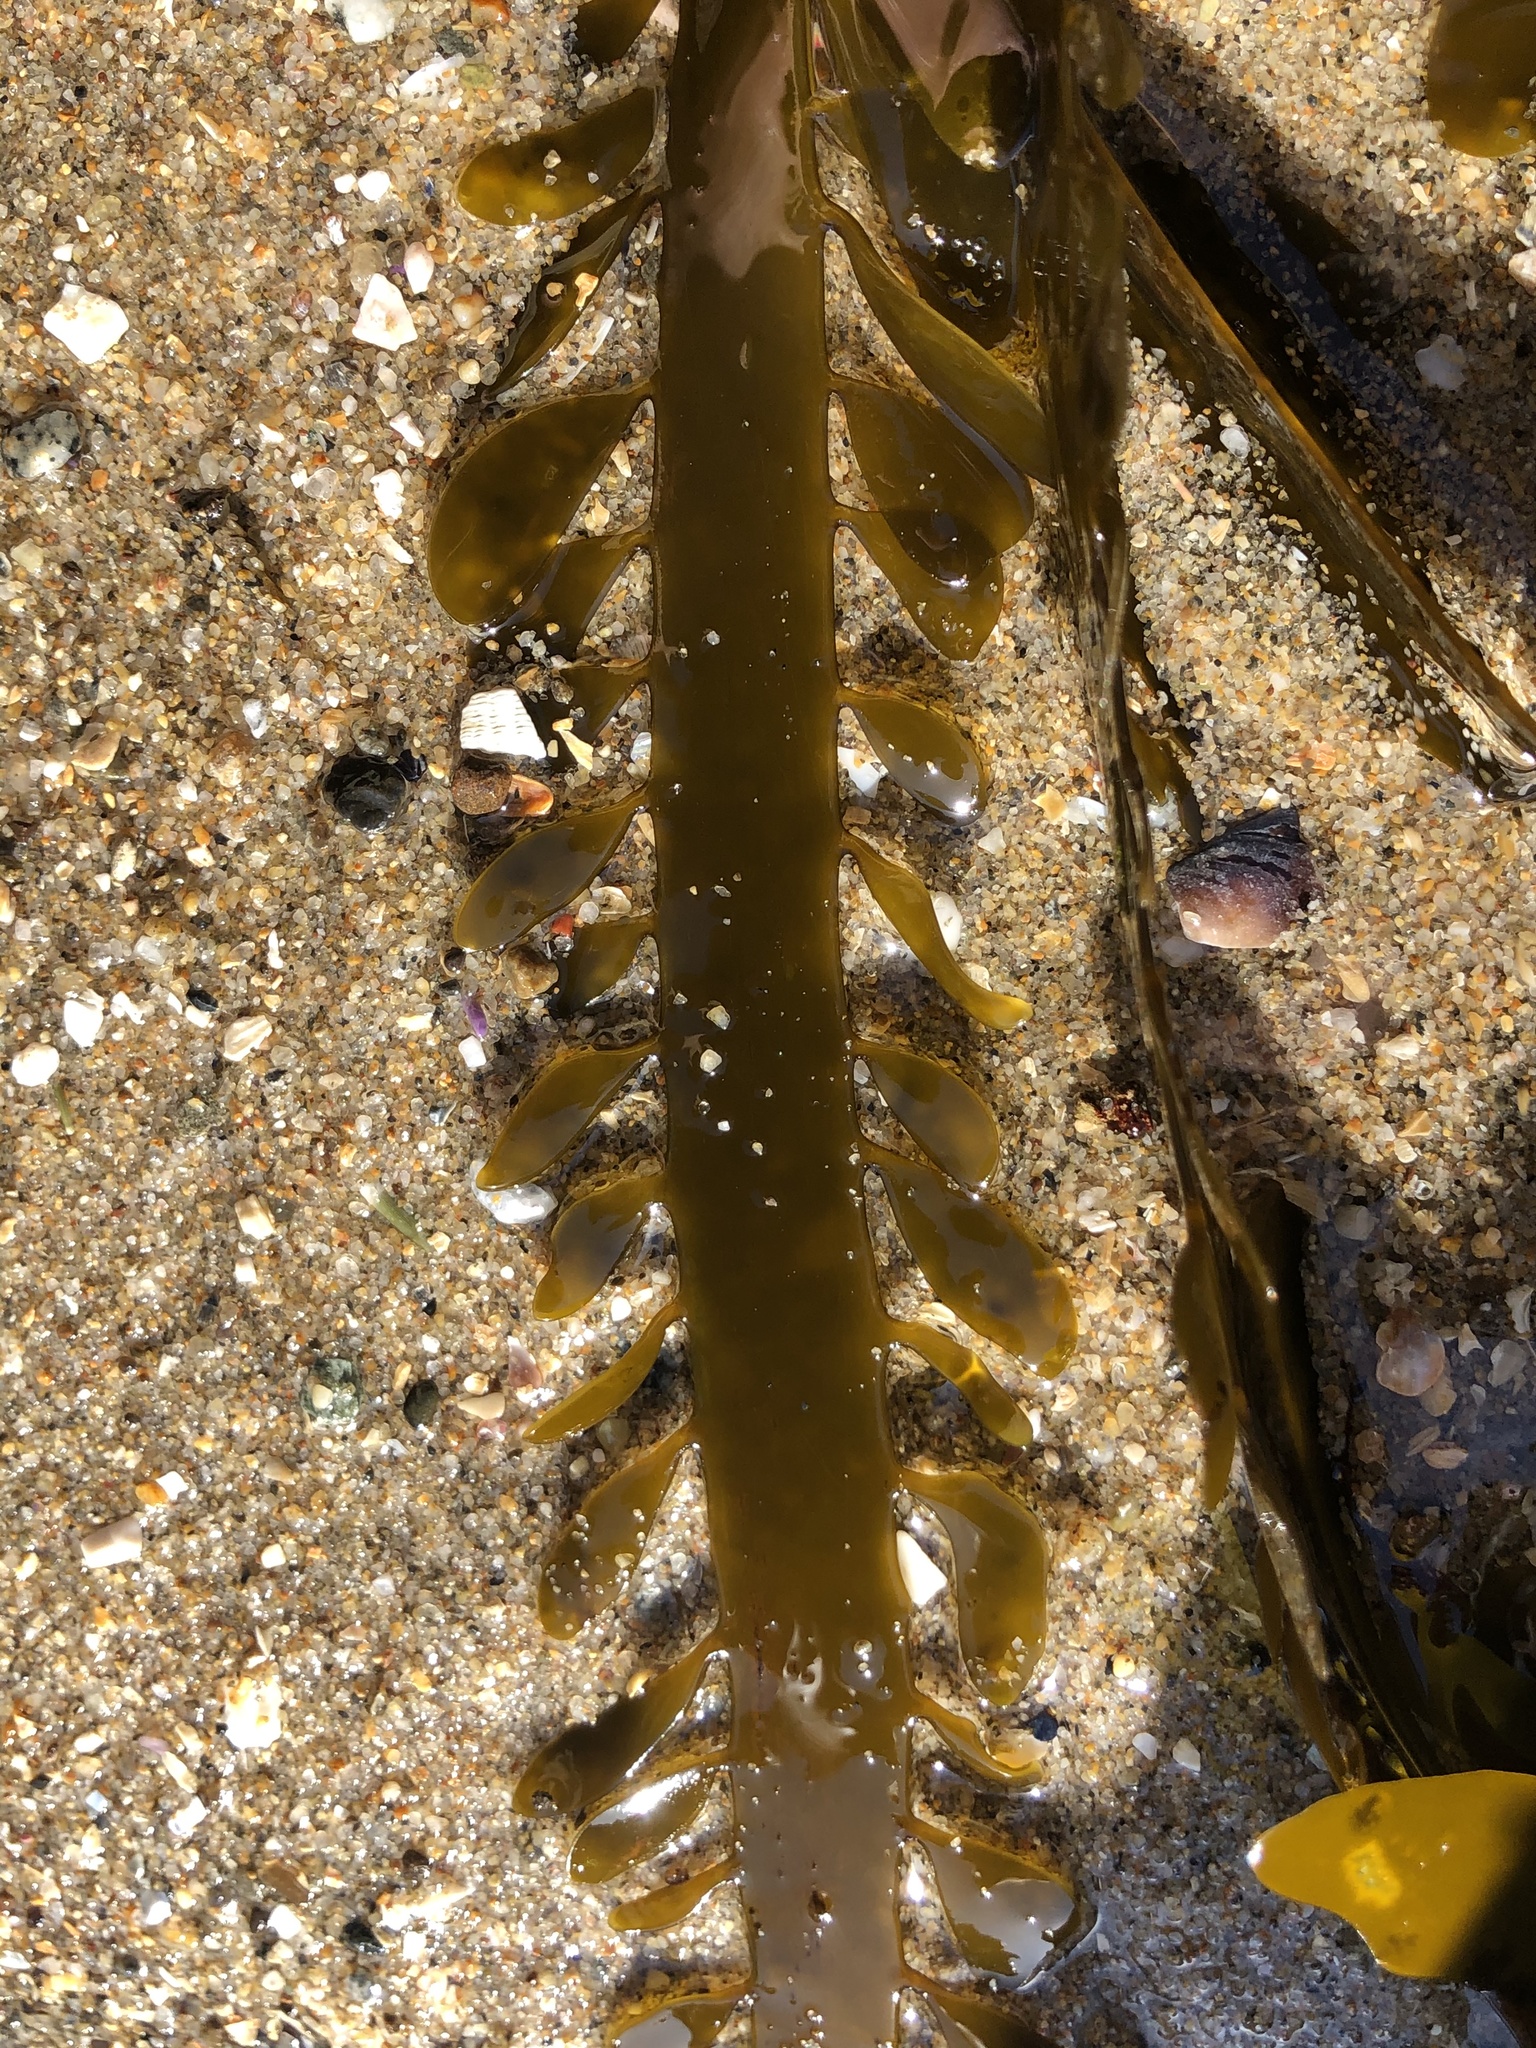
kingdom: Chromista
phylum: Ochrophyta
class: Phaeophyceae
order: Laminariales
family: Lessoniaceae
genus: Egregia
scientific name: Egregia menziesii
